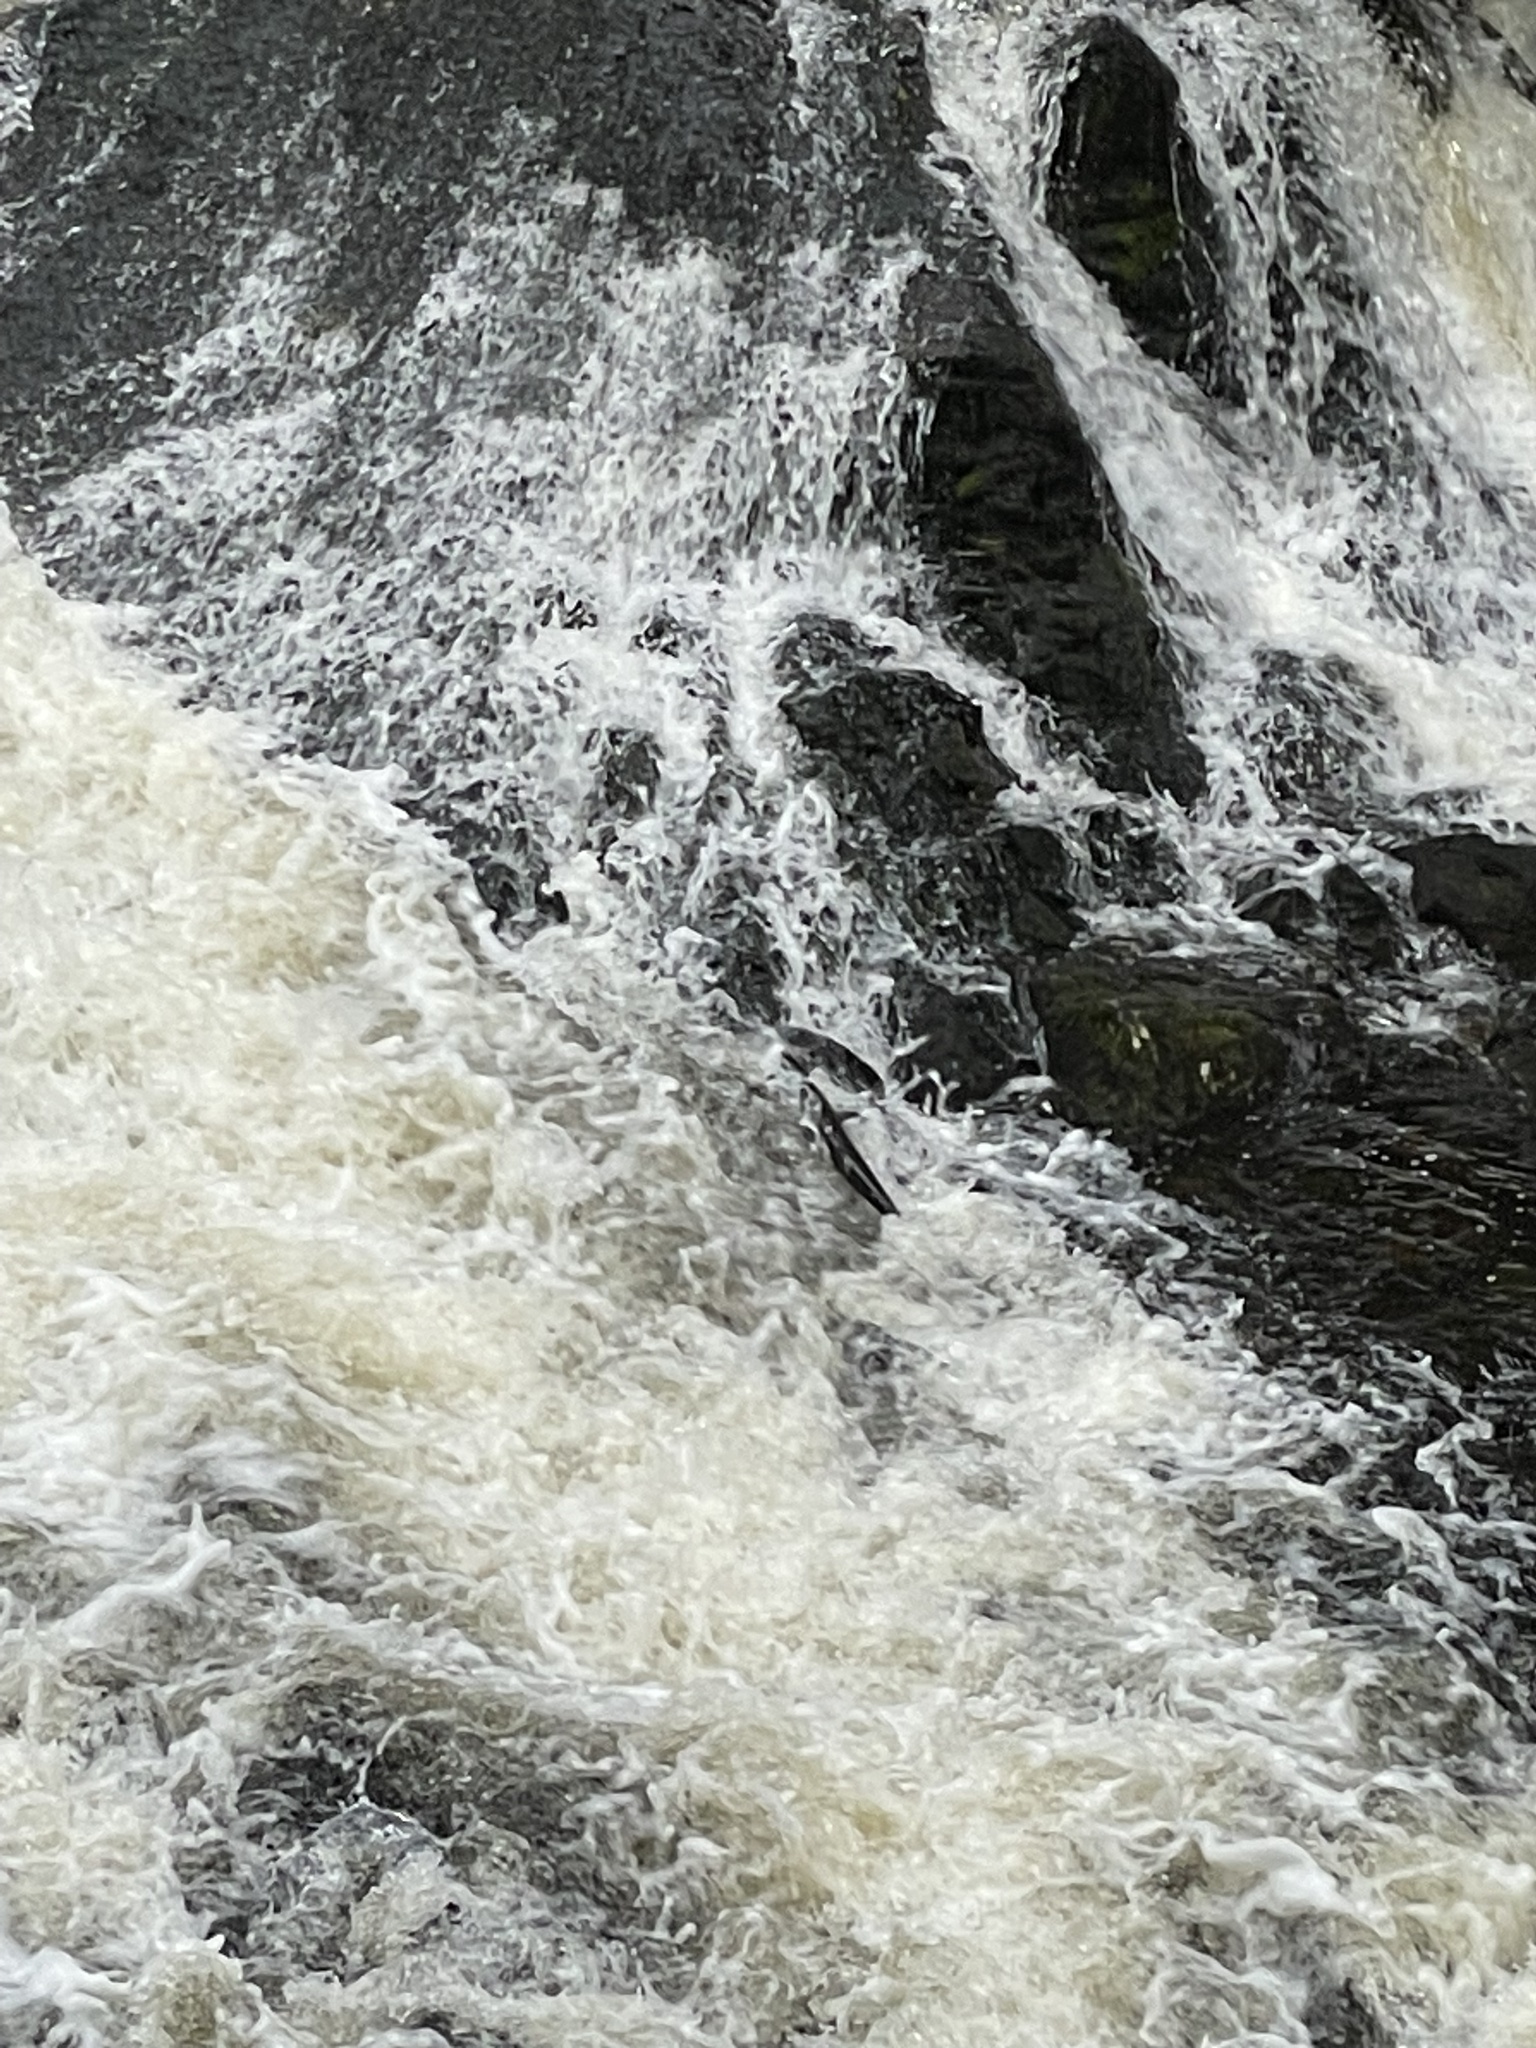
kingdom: Animalia
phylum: Chordata
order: Salmoniformes
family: Salmonidae
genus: Oncorhynchus
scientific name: Oncorhynchus gorbuscha
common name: Humpback salmon
